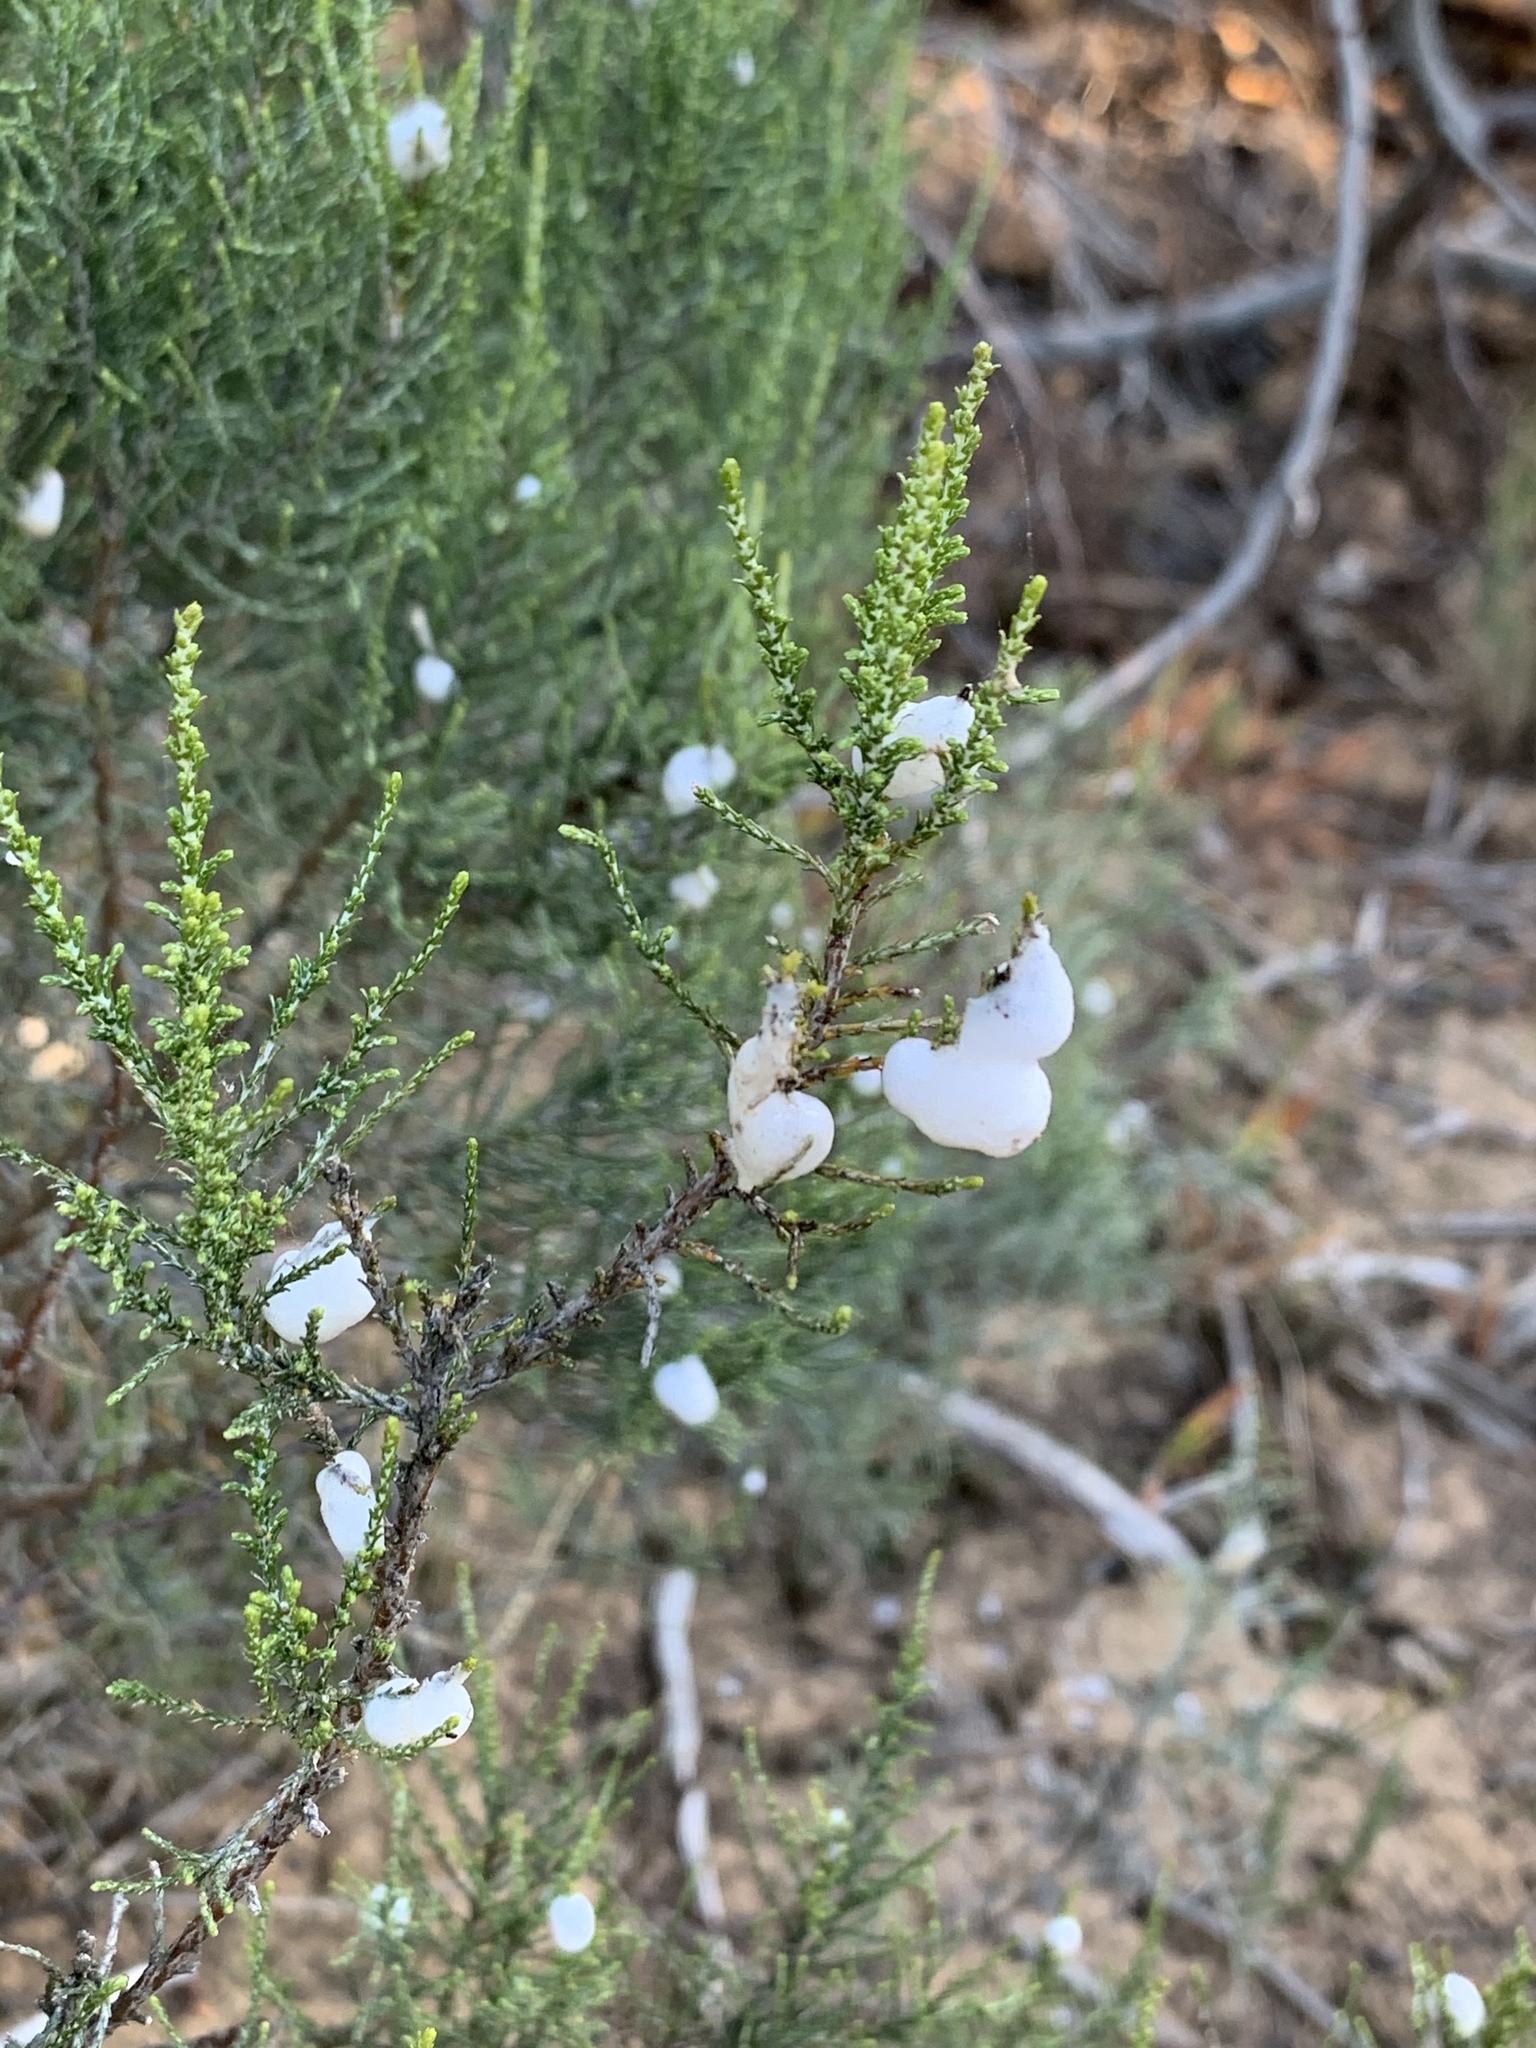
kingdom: Plantae
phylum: Tracheophyta
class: Magnoliopsida
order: Asterales
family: Asteraceae
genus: Dicerothamnus
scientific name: Dicerothamnus rhinocerotis
